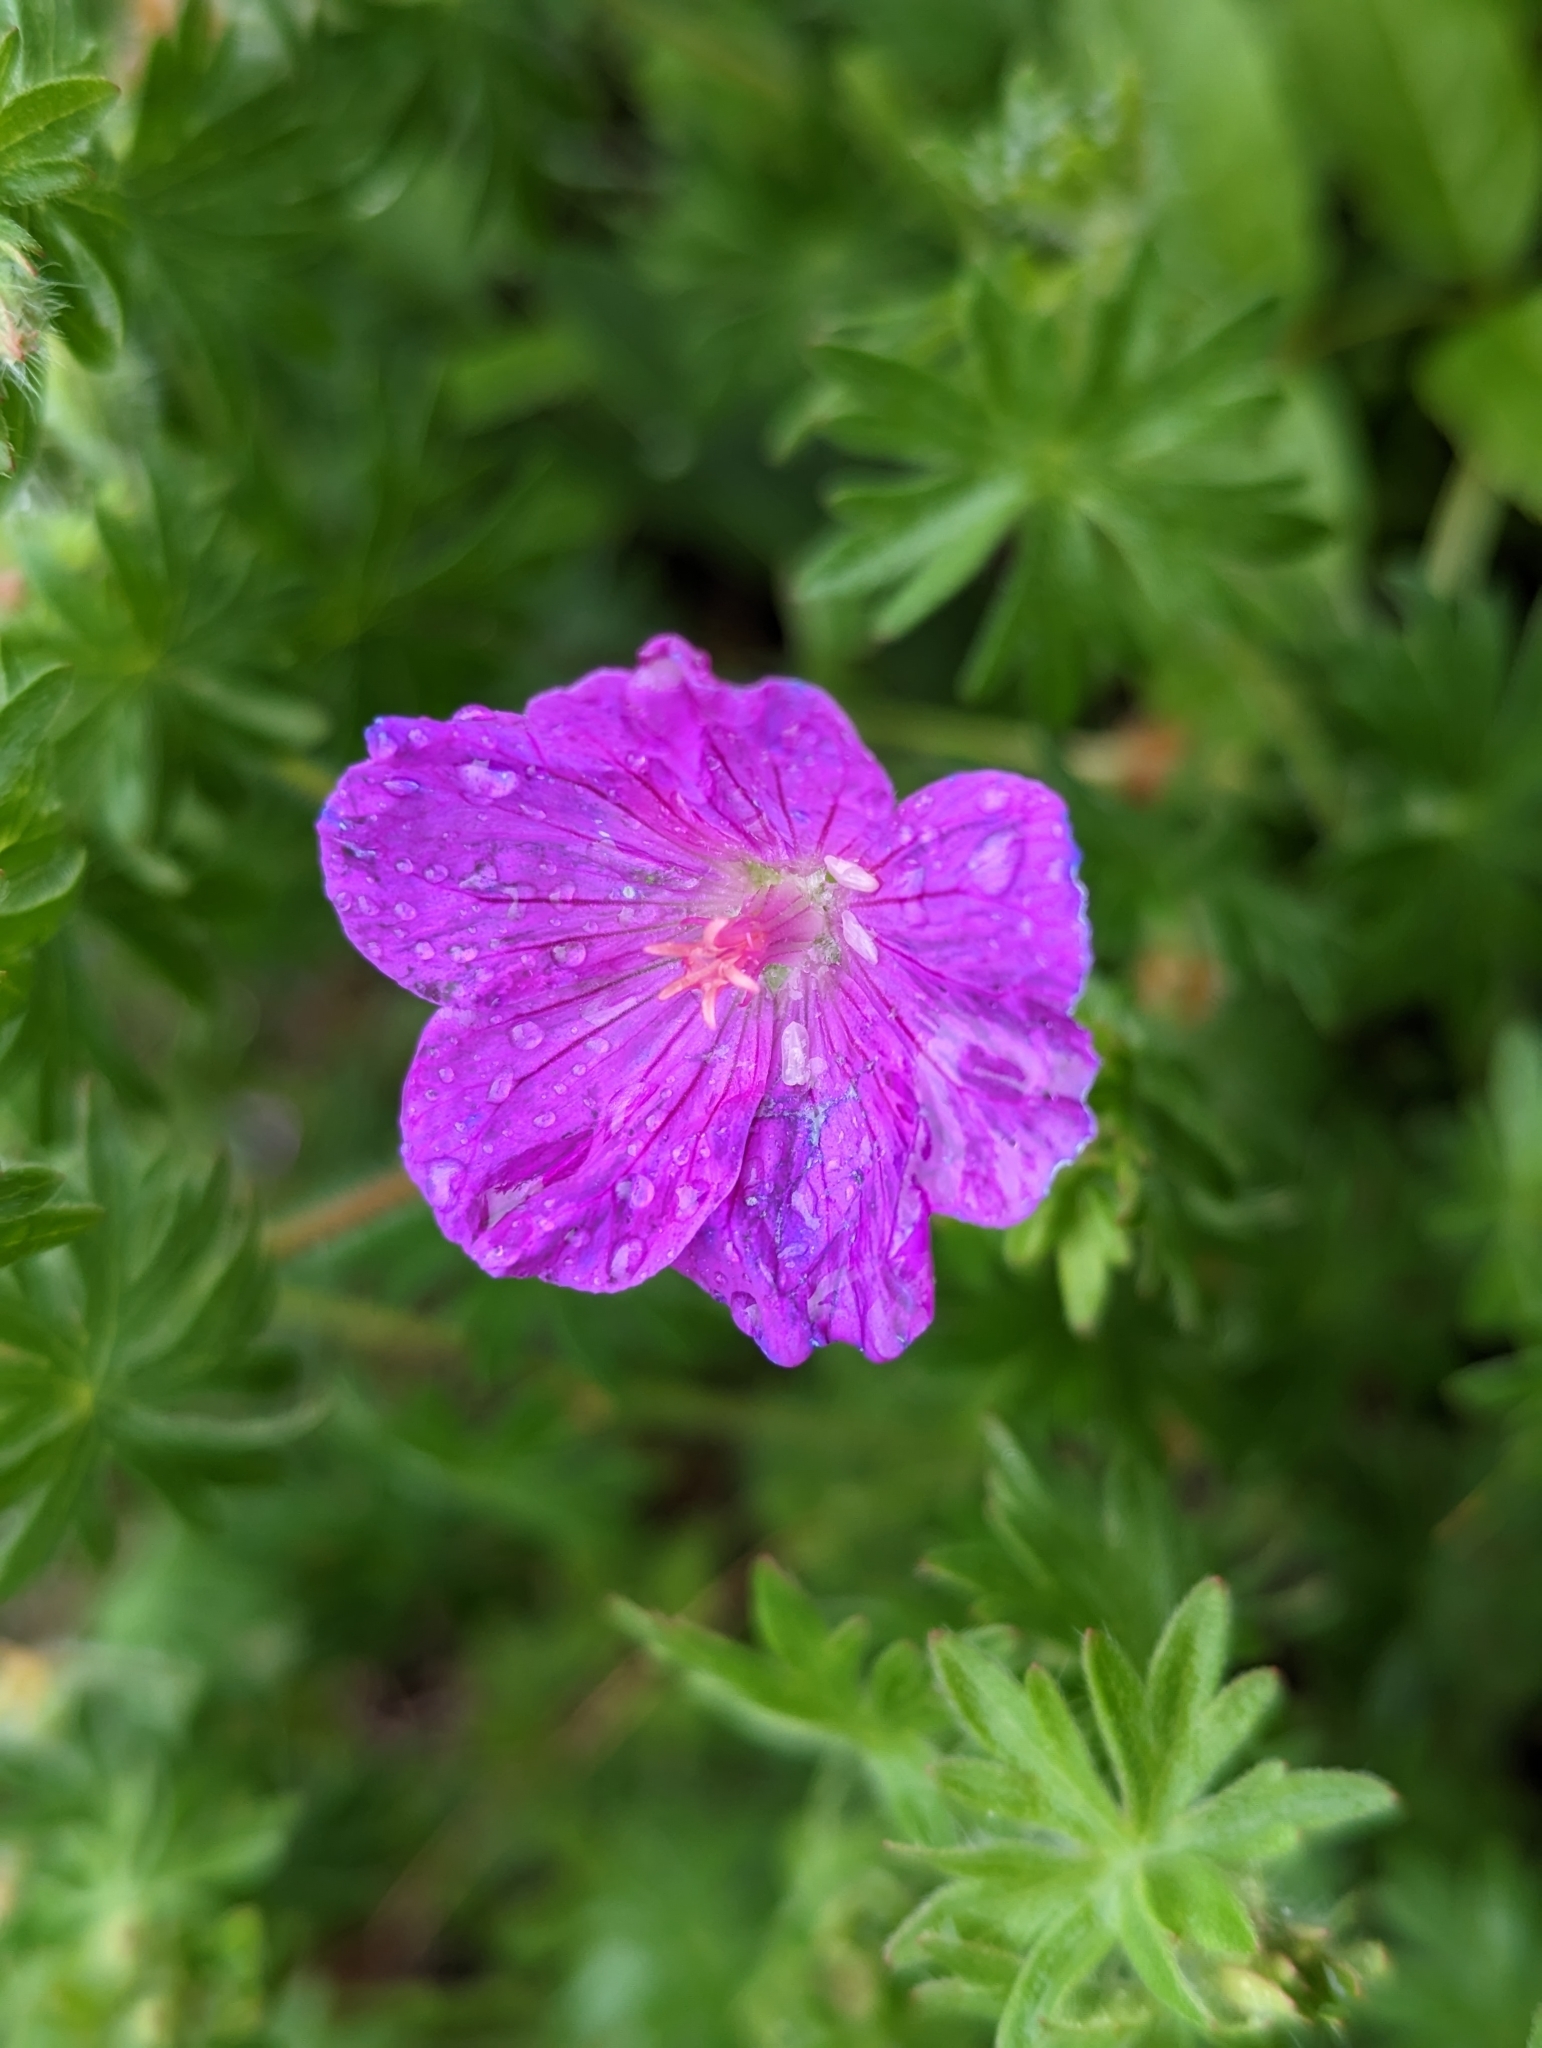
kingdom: Plantae
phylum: Tracheophyta
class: Magnoliopsida
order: Geraniales
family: Geraniaceae
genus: Geranium
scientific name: Geranium sanguineum
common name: Bloody crane's-bill
